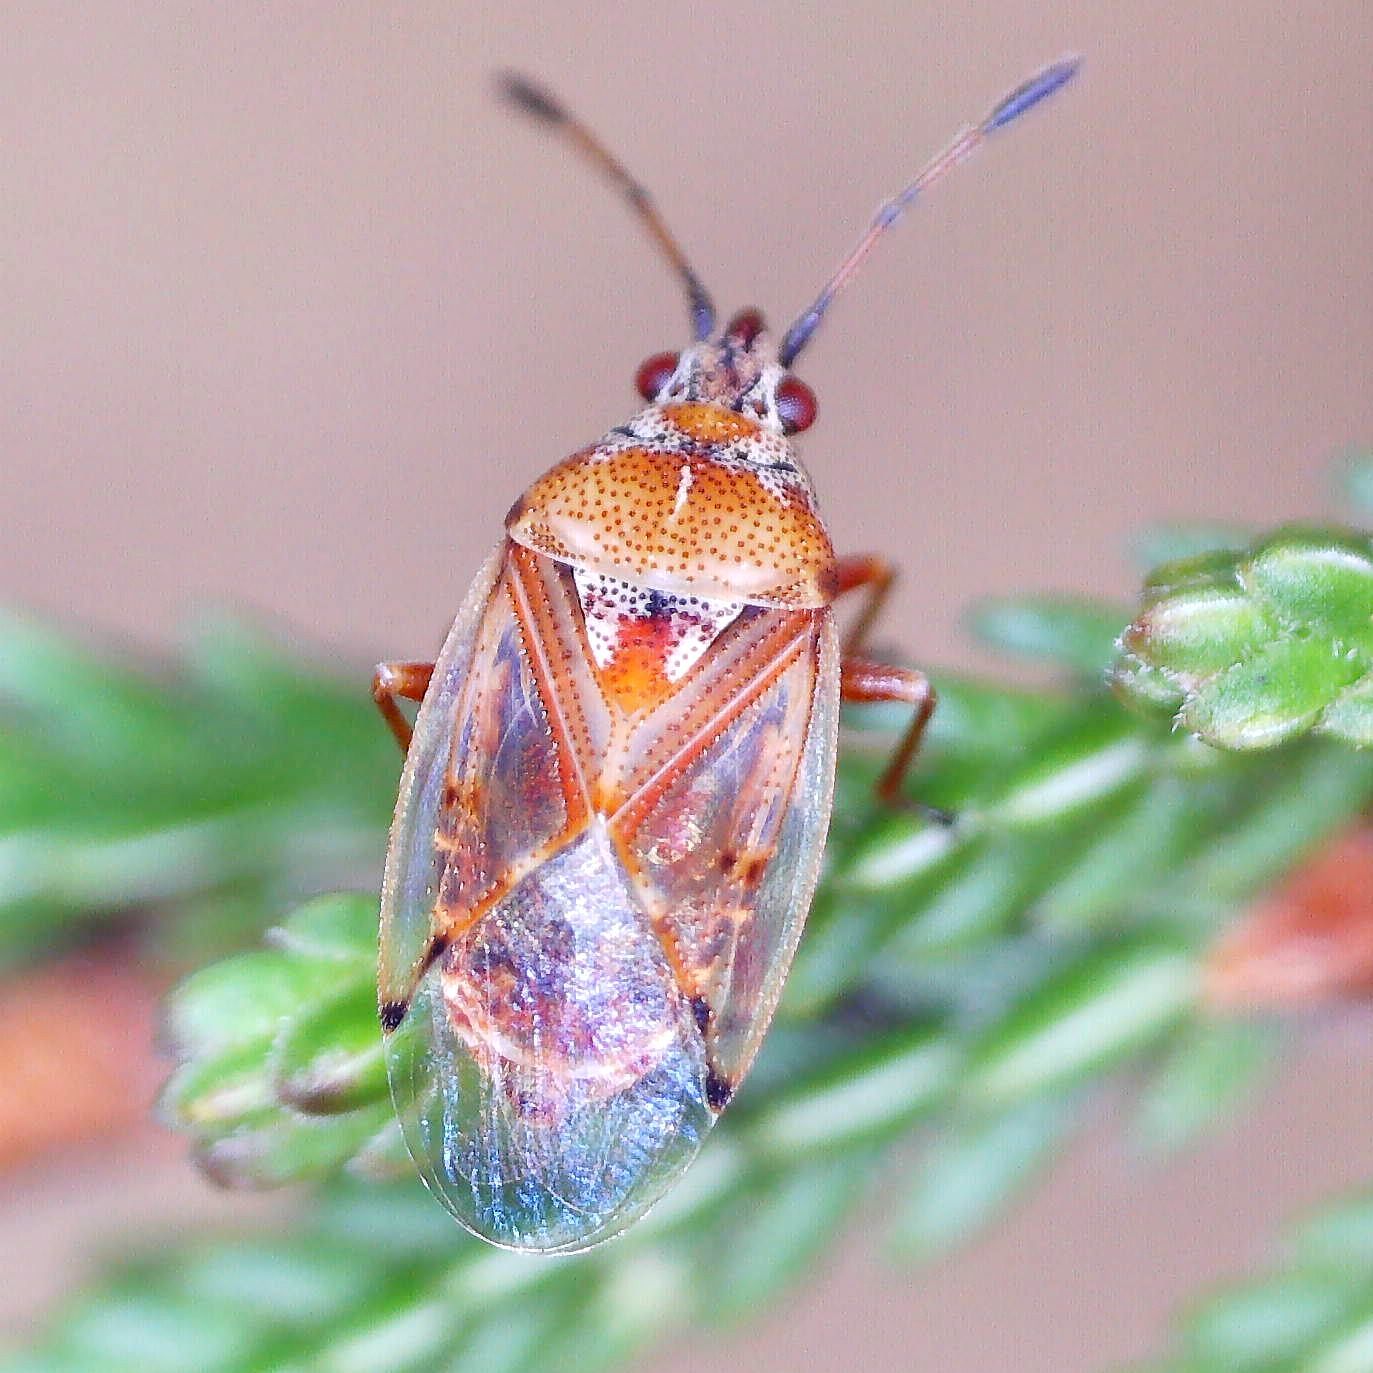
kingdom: Animalia
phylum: Arthropoda
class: Insecta
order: Hemiptera
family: Lygaeidae
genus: Kleidocerys
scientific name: Kleidocerys ericae
